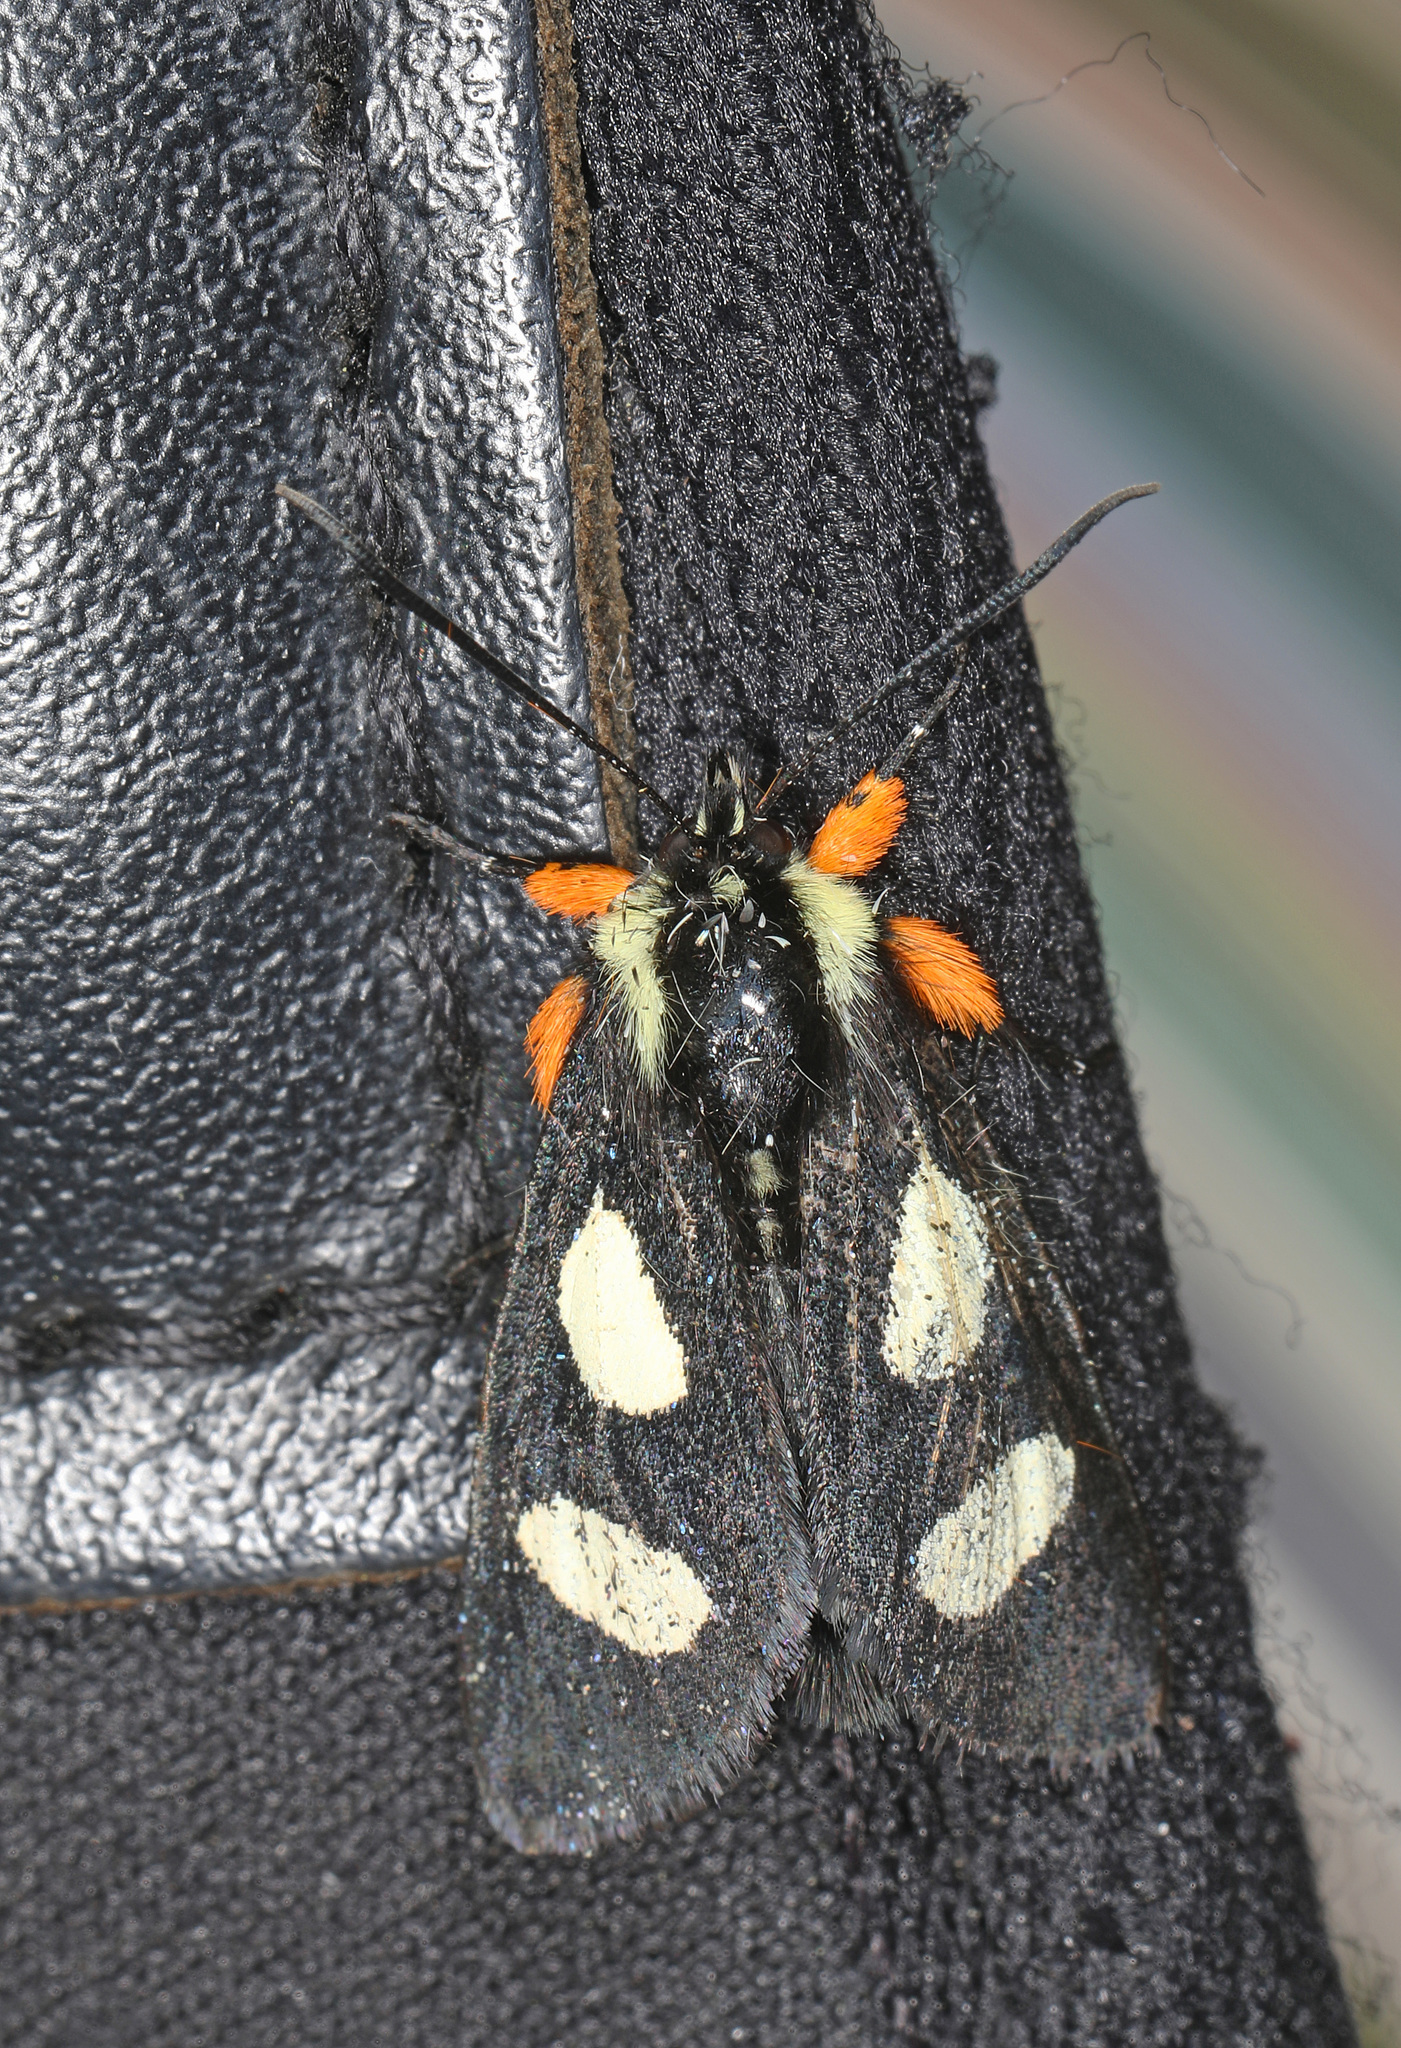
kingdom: Animalia
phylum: Arthropoda
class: Insecta
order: Lepidoptera
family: Noctuidae
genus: Alypia
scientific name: Alypia octomaculata
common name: Eight-spotted forester
